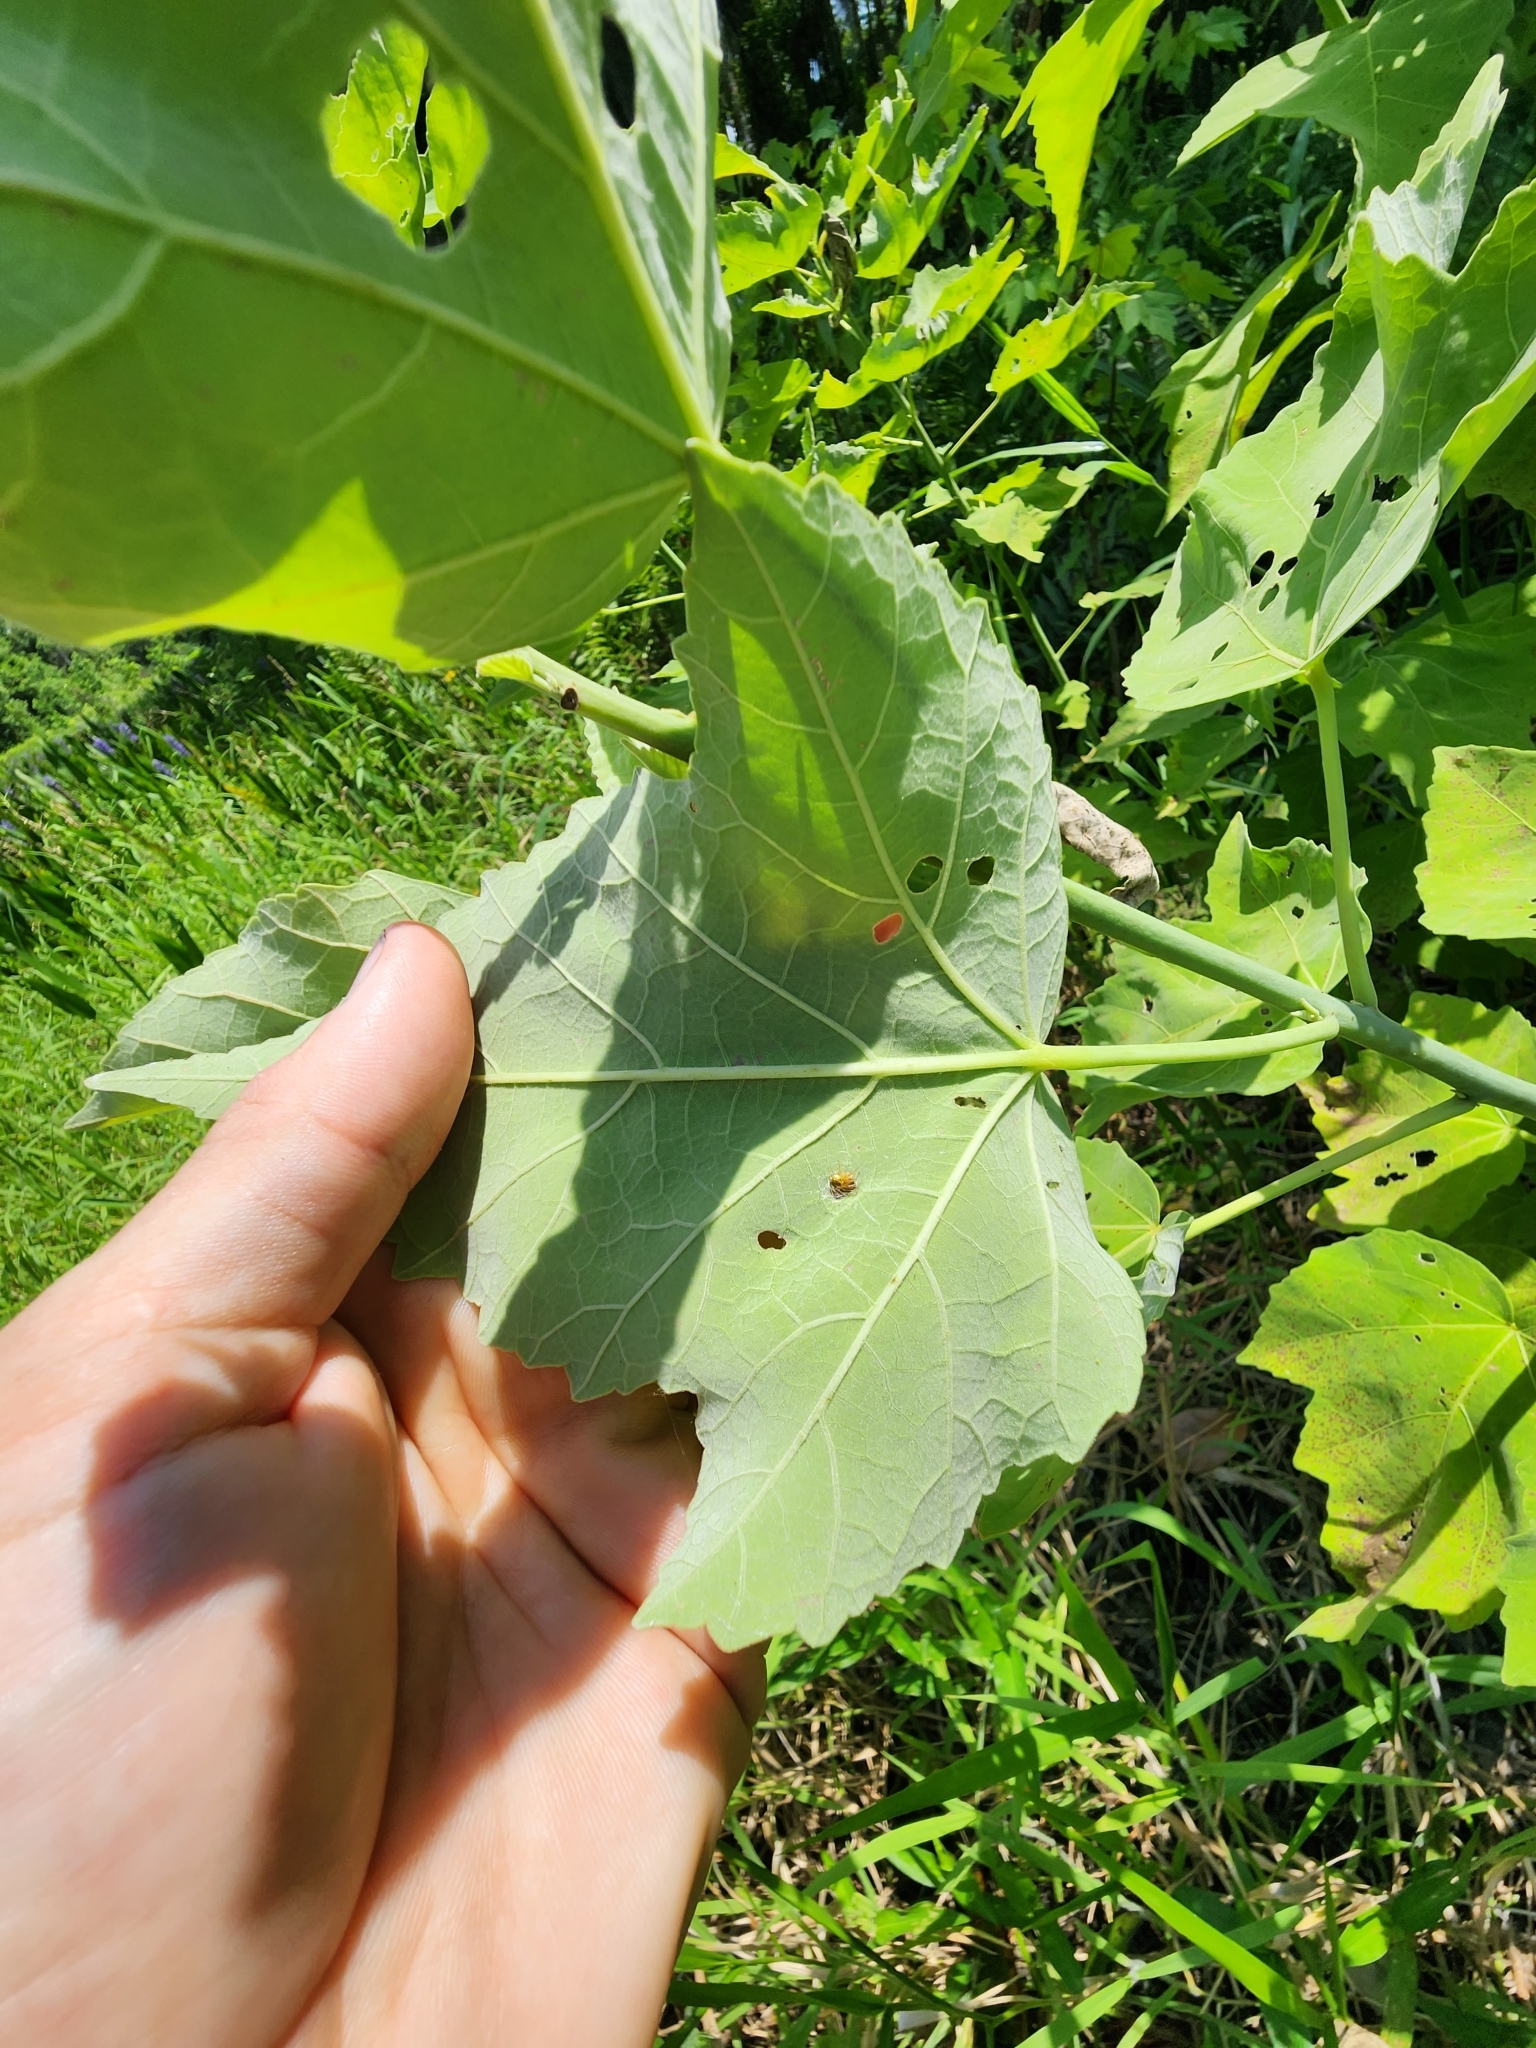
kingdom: Plantae
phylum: Tracheophyta
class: Magnoliopsida
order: Malvales
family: Malvaceae
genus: Hibiscus
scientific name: Hibiscus grandiflorus
